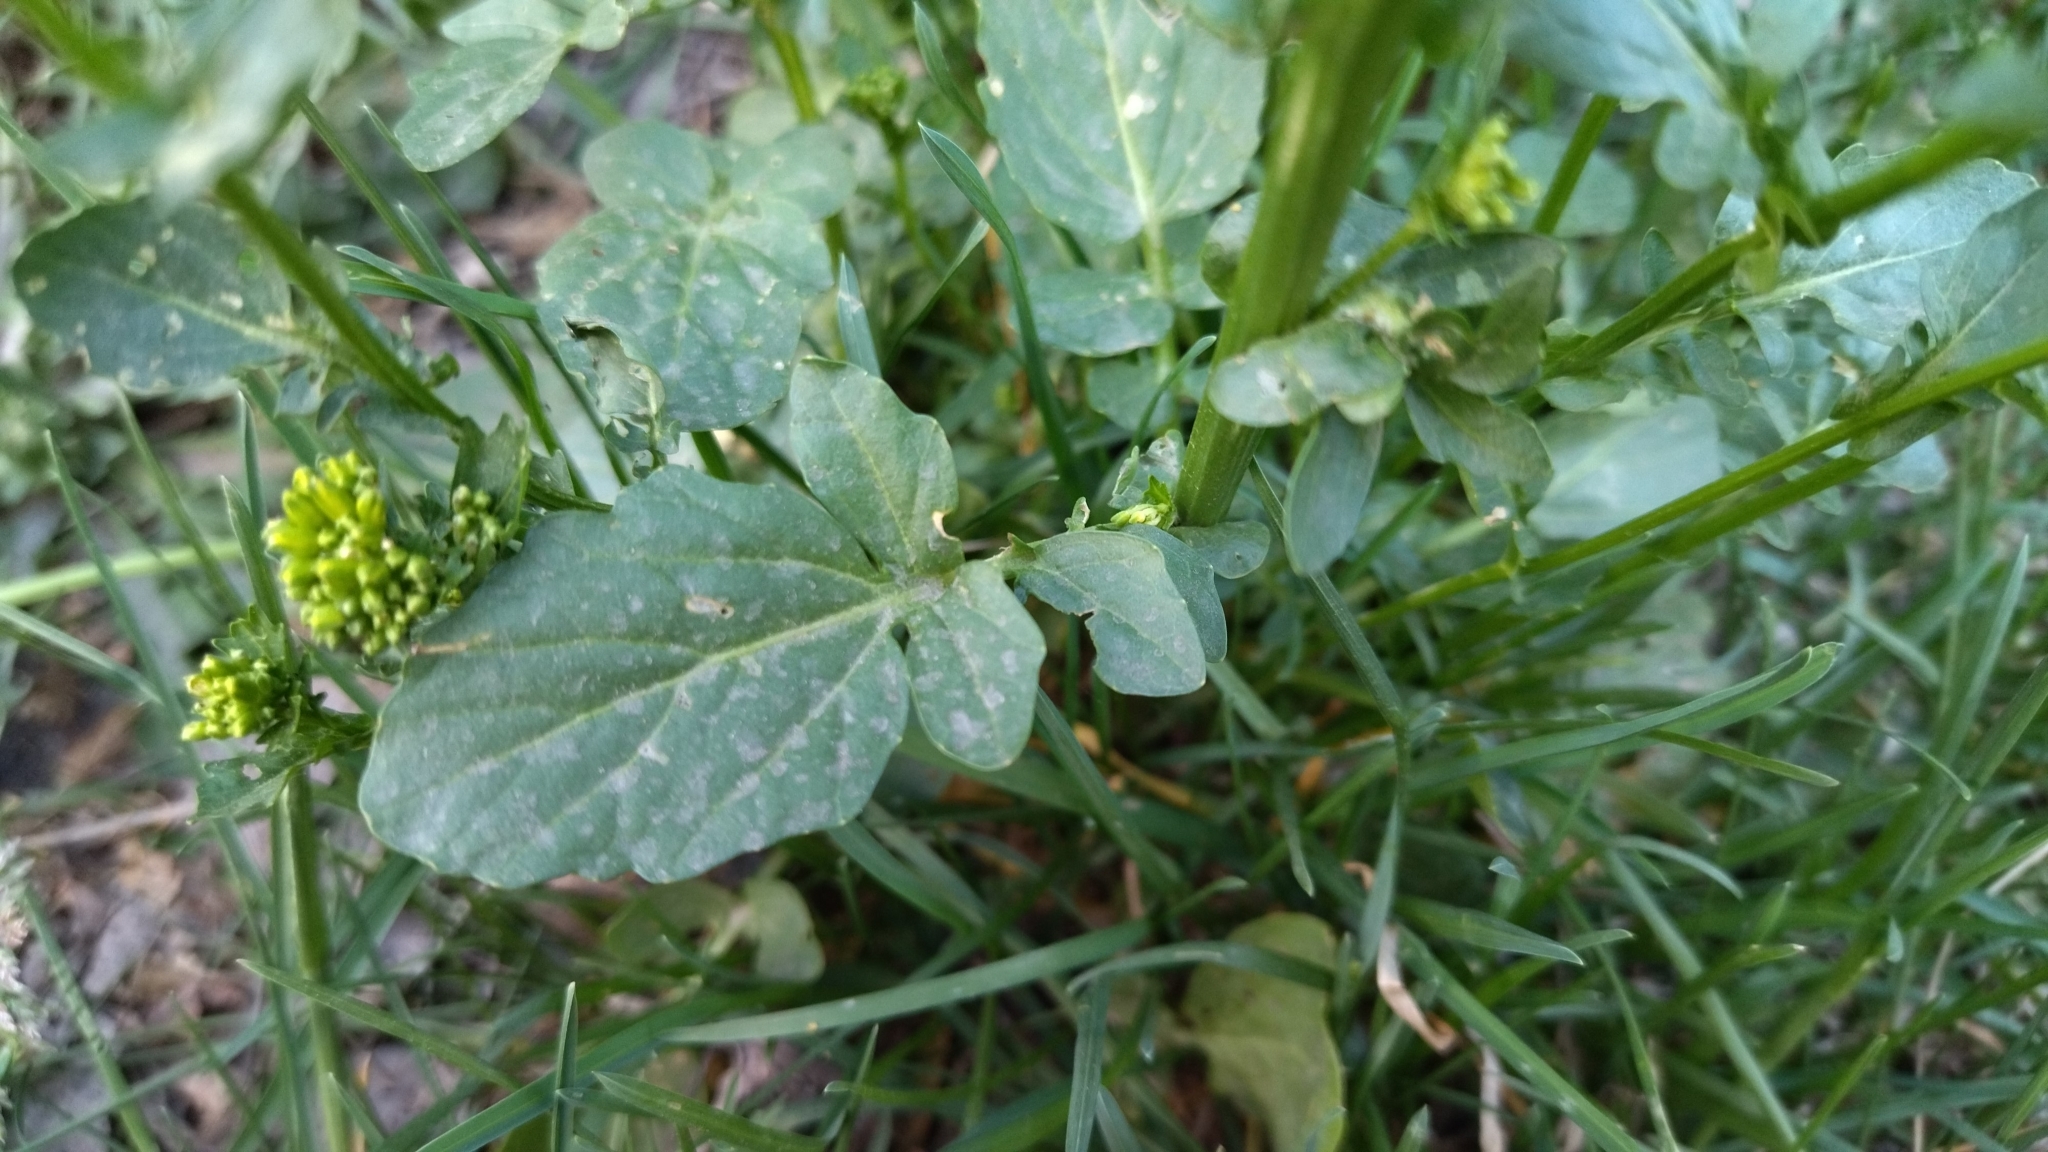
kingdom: Plantae
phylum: Tracheophyta
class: Magnoliopsida
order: Brassicales
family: Brassicaceae
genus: Barbarea
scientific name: Barbarea vulgaris
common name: Cressy-greens
